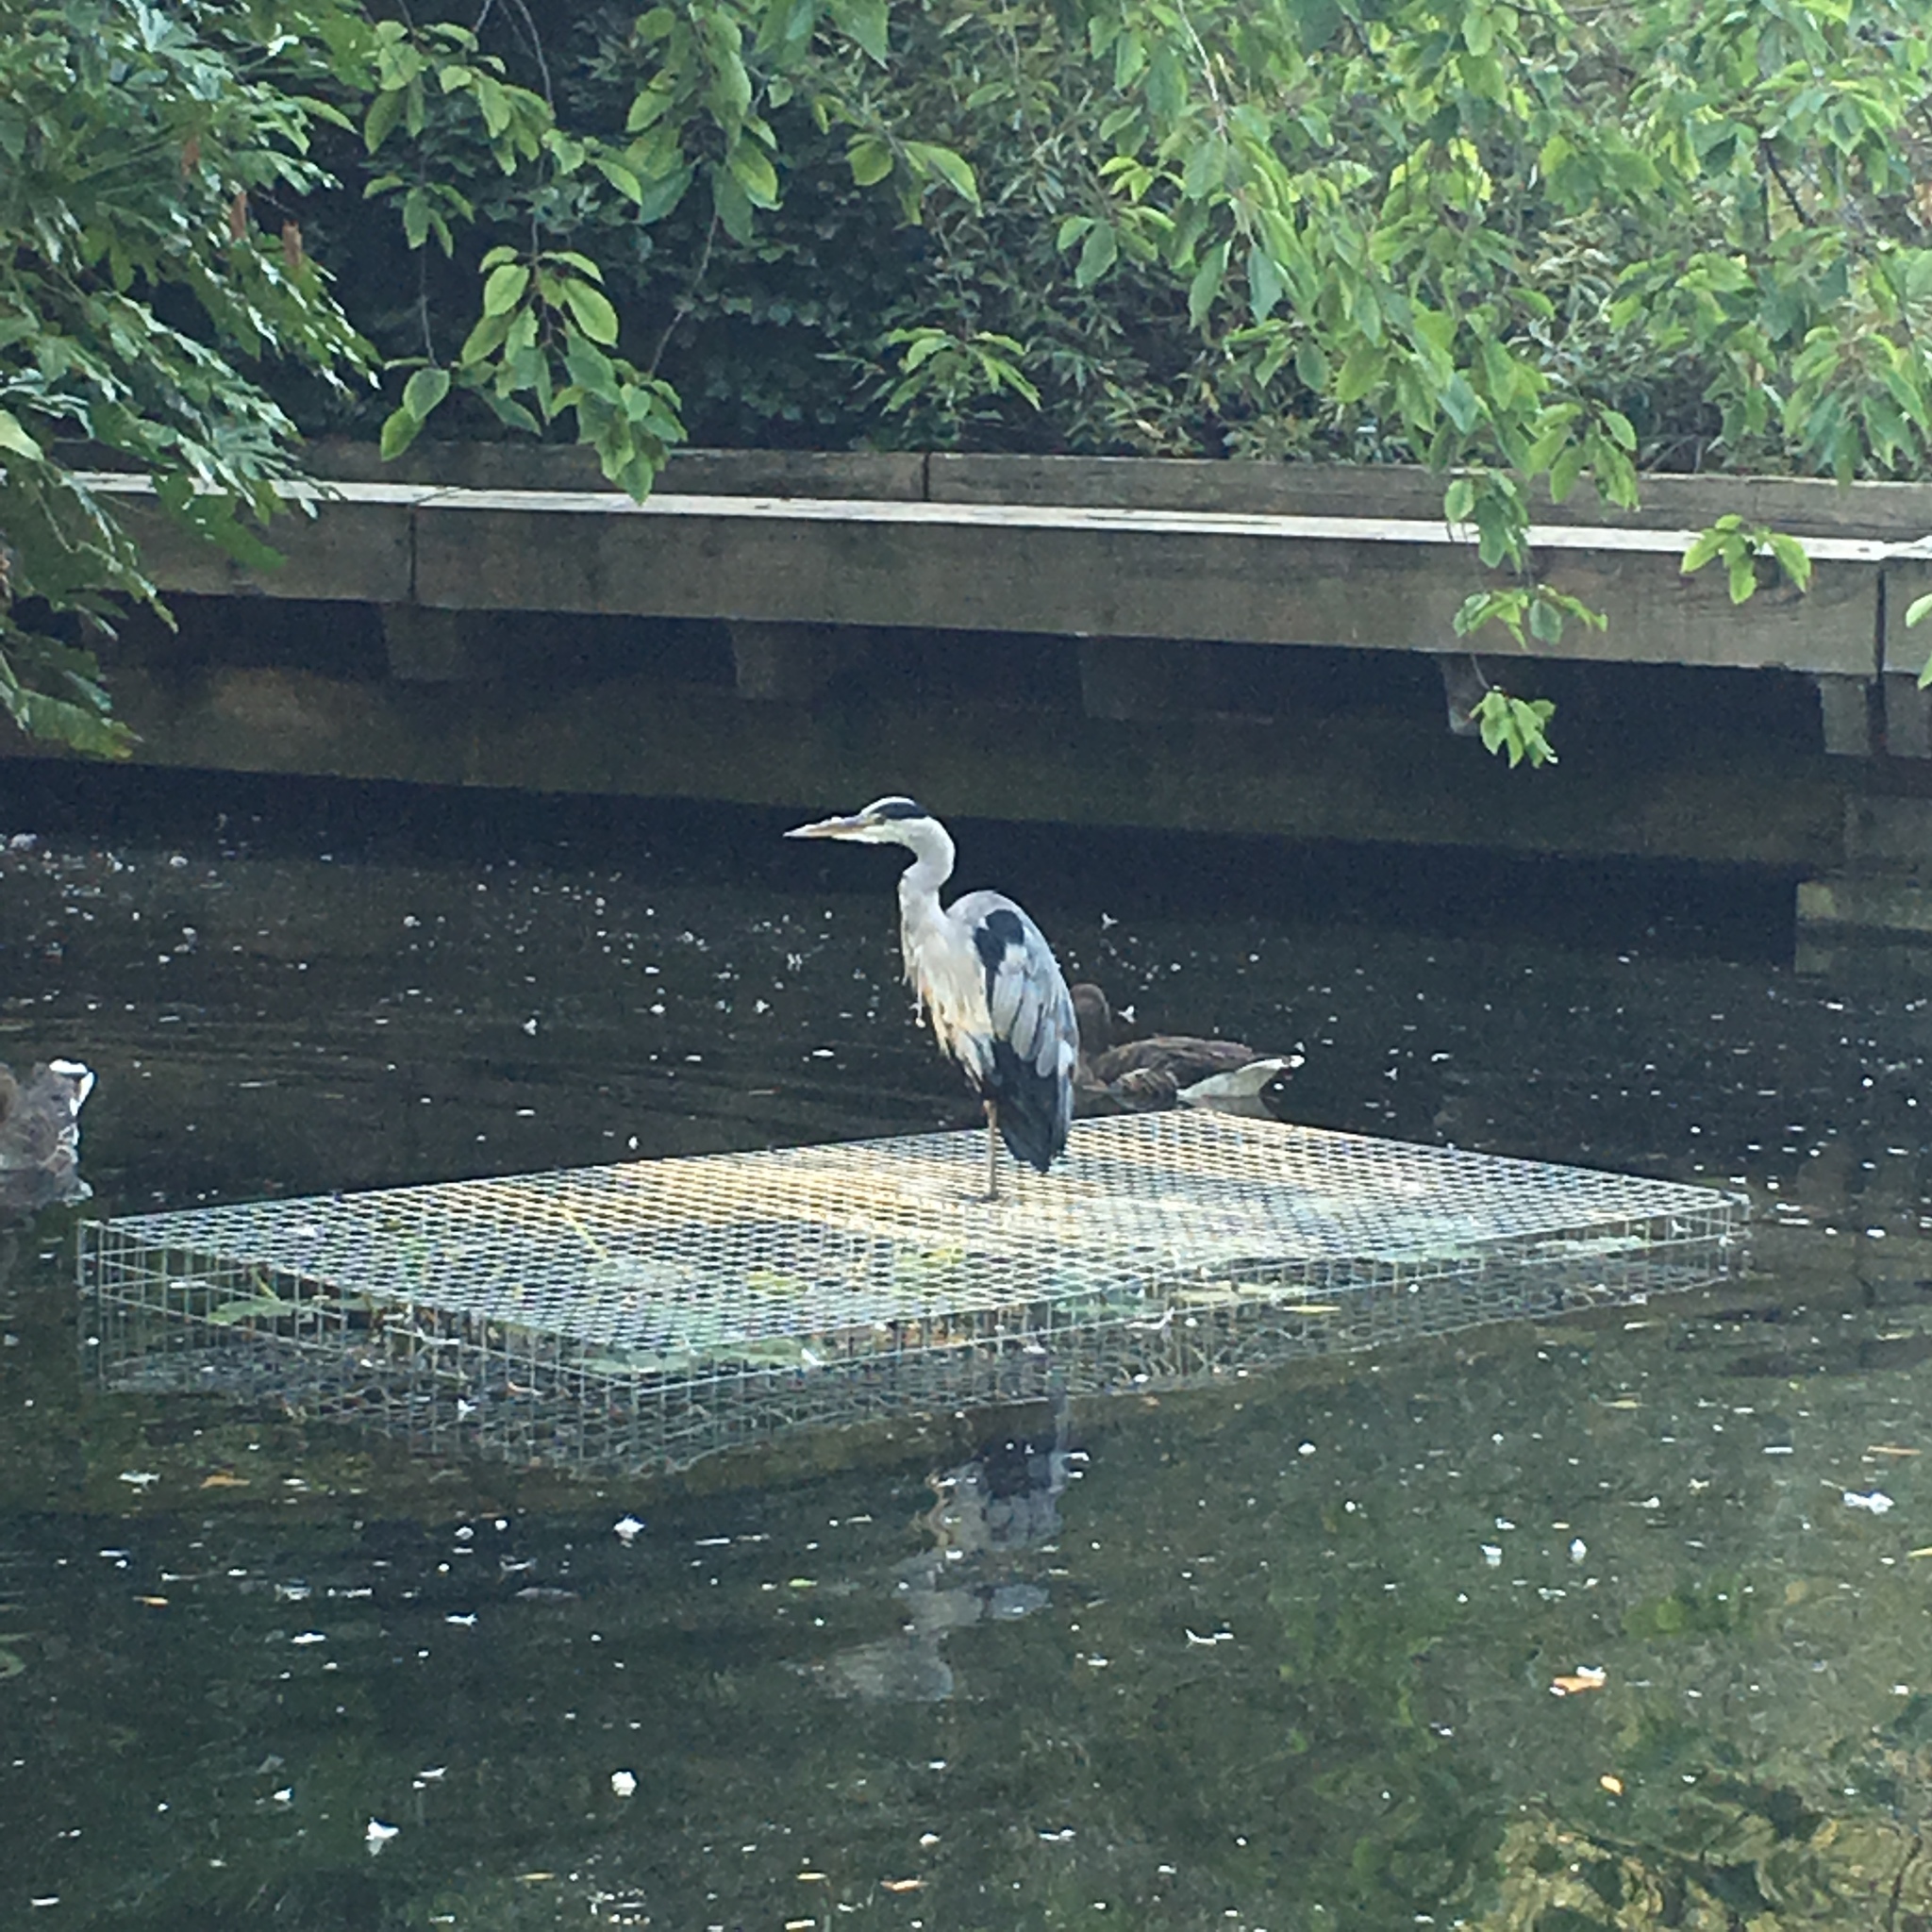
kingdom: Animalia
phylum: Chordata
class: Aves
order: Pelecaniformes
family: Ardeidae
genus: Ardea
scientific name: Ardea cinerea
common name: Grey heron
